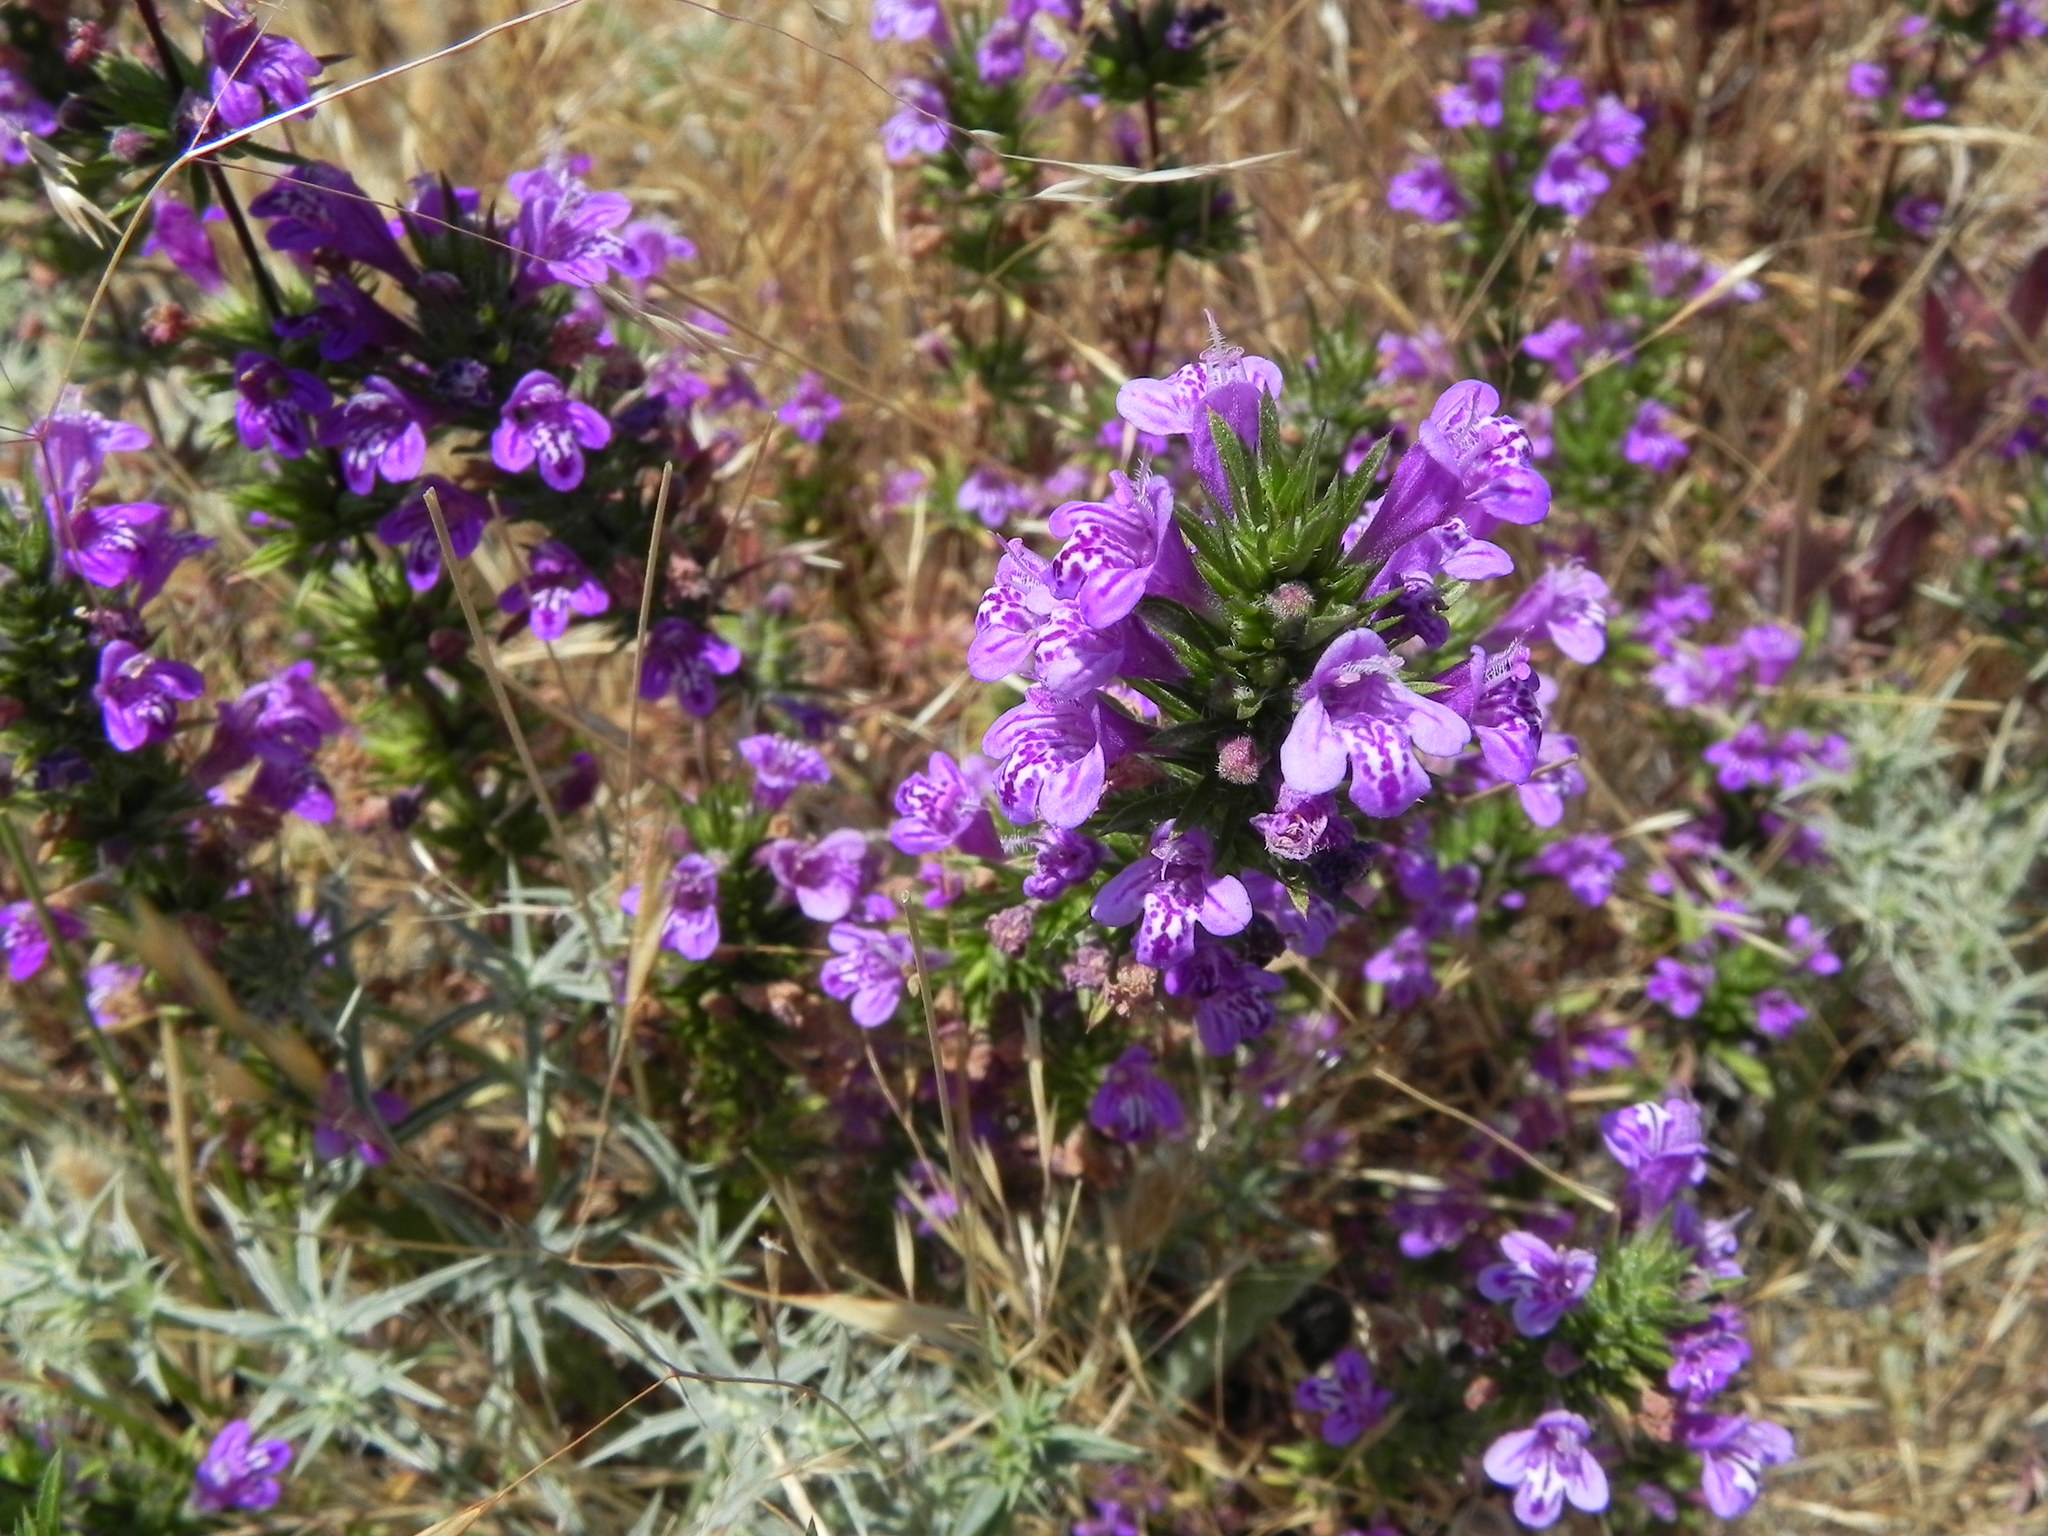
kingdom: Plantae
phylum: Tracheophyta
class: Magnoliopsida
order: Lamiales
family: Lamiaceae
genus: Pogogyne
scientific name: Pogogyne nudiuscula
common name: Otay mesa-mint
